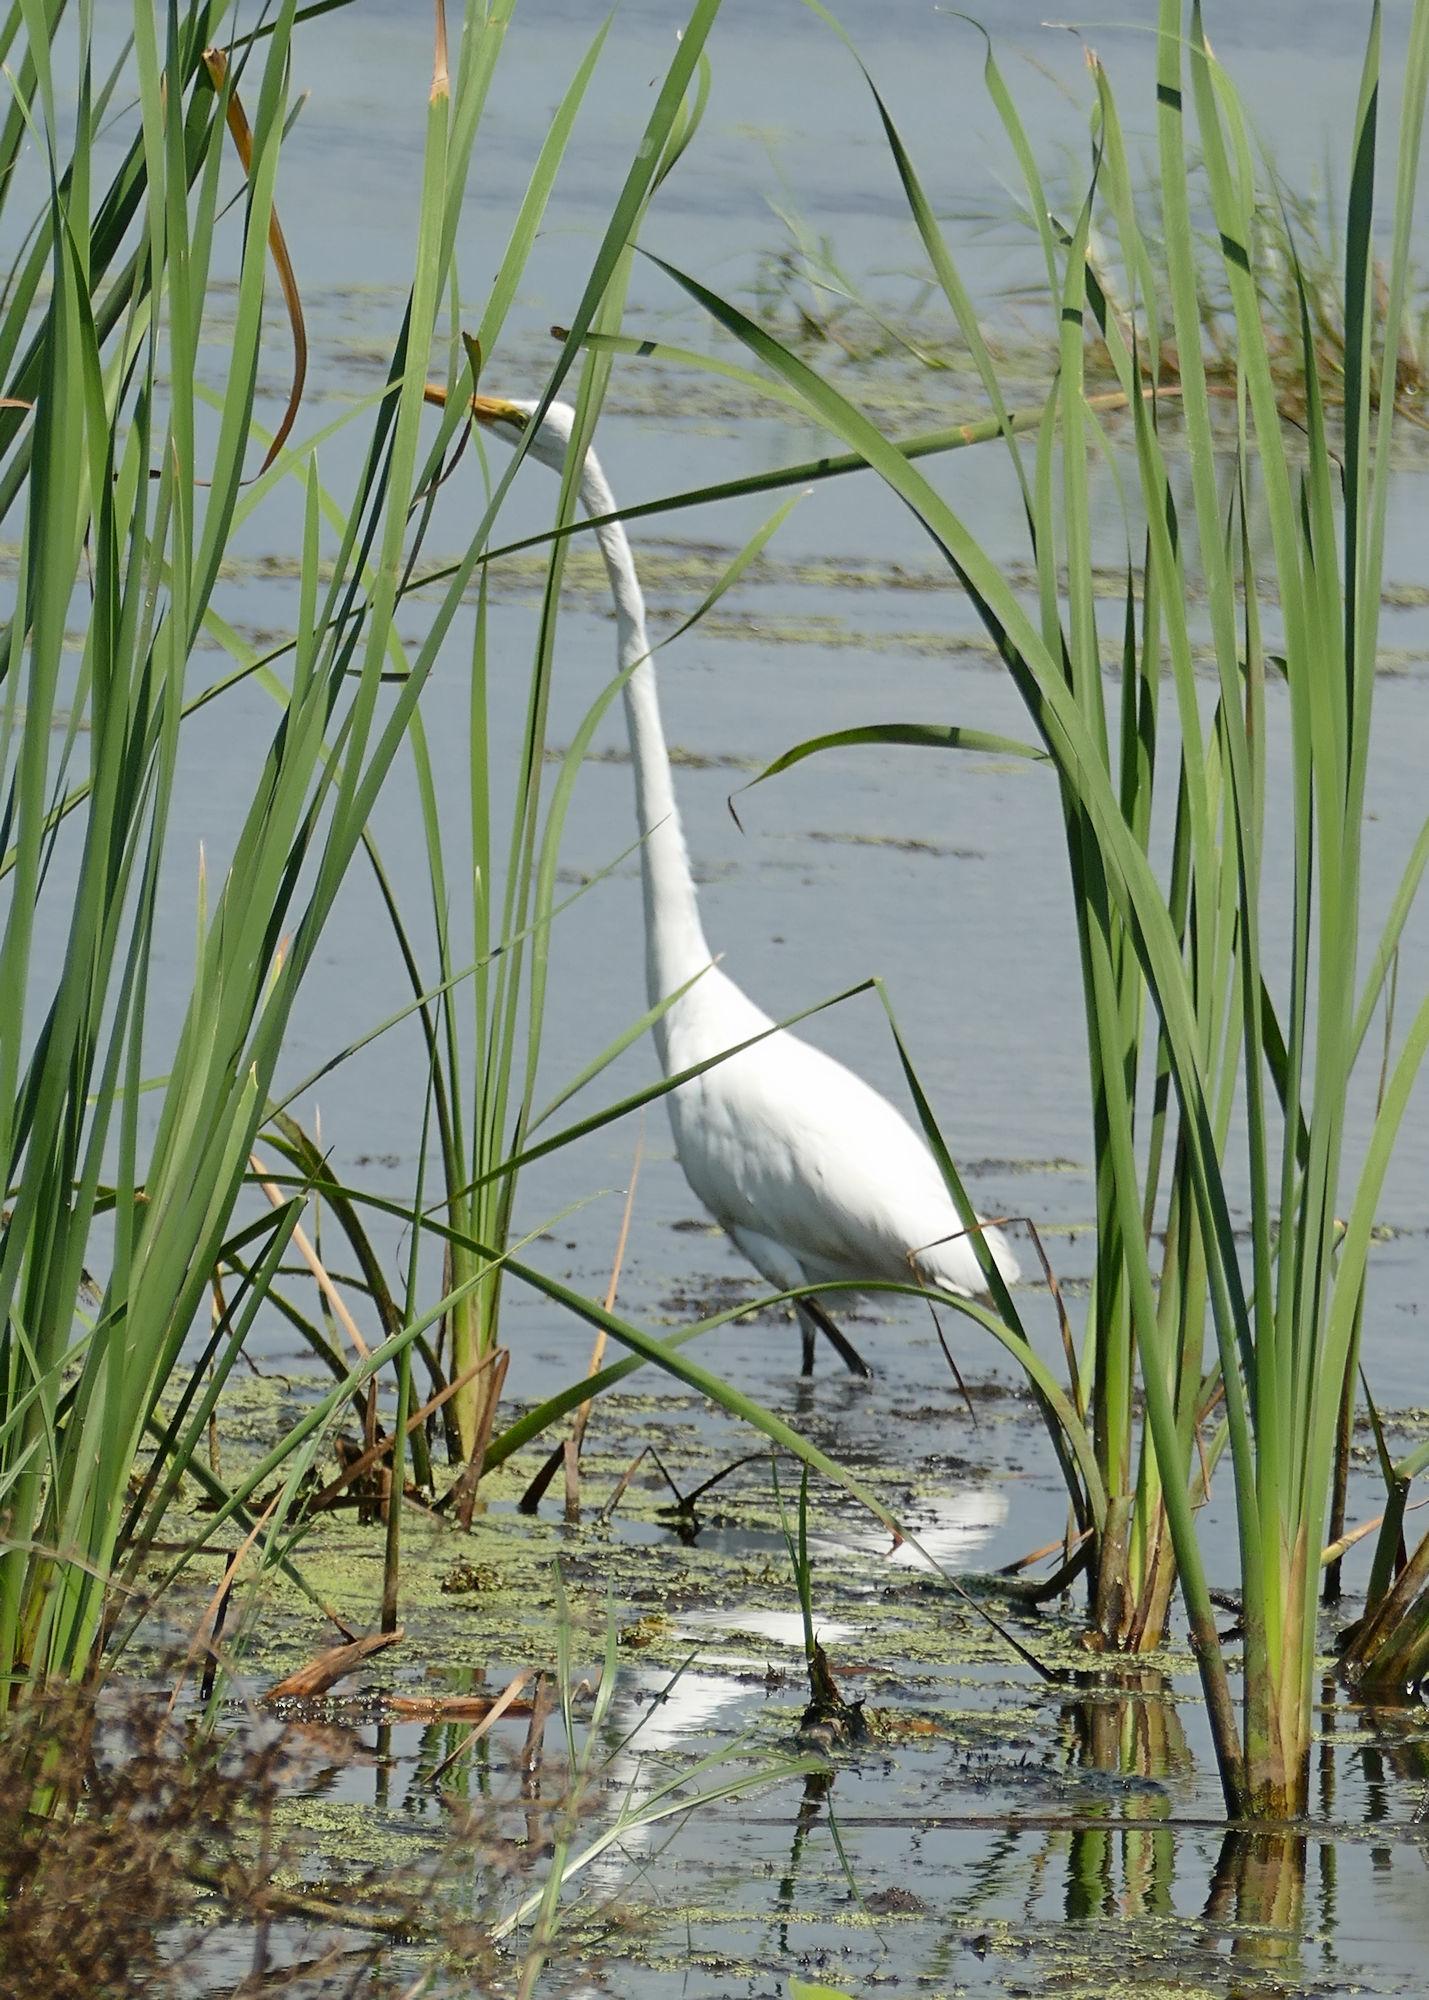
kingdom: Animalia
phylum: Chordata
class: Aves
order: Pelecaniformes
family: Ardeidae
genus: Ardea
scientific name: Ardea alba
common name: Great egret
